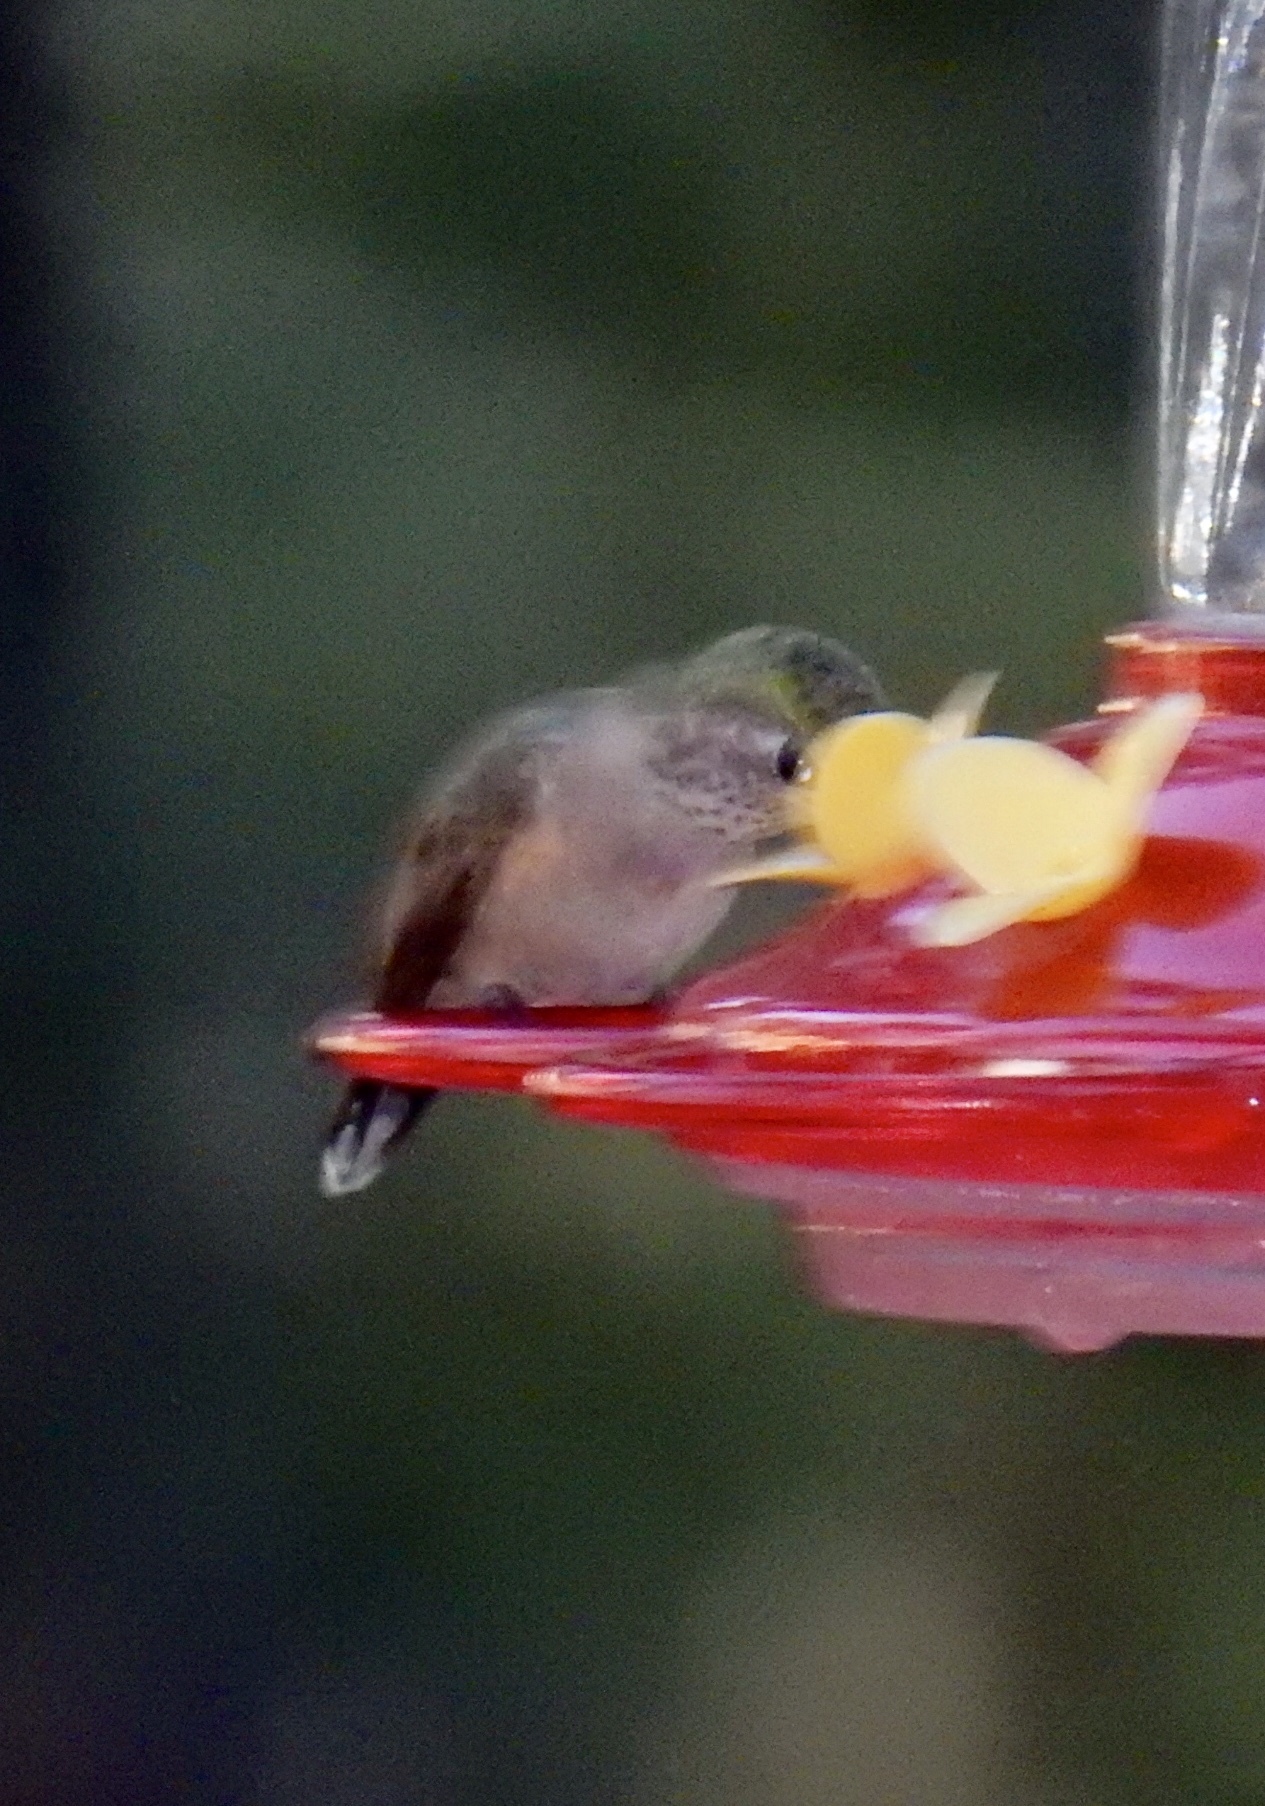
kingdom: Animalia
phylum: Chordata
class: Aves
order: Apodiformes
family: Trochilidae
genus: Selasphorus
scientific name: Selasphorus platycercus
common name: Broad-tailed hummingbird
